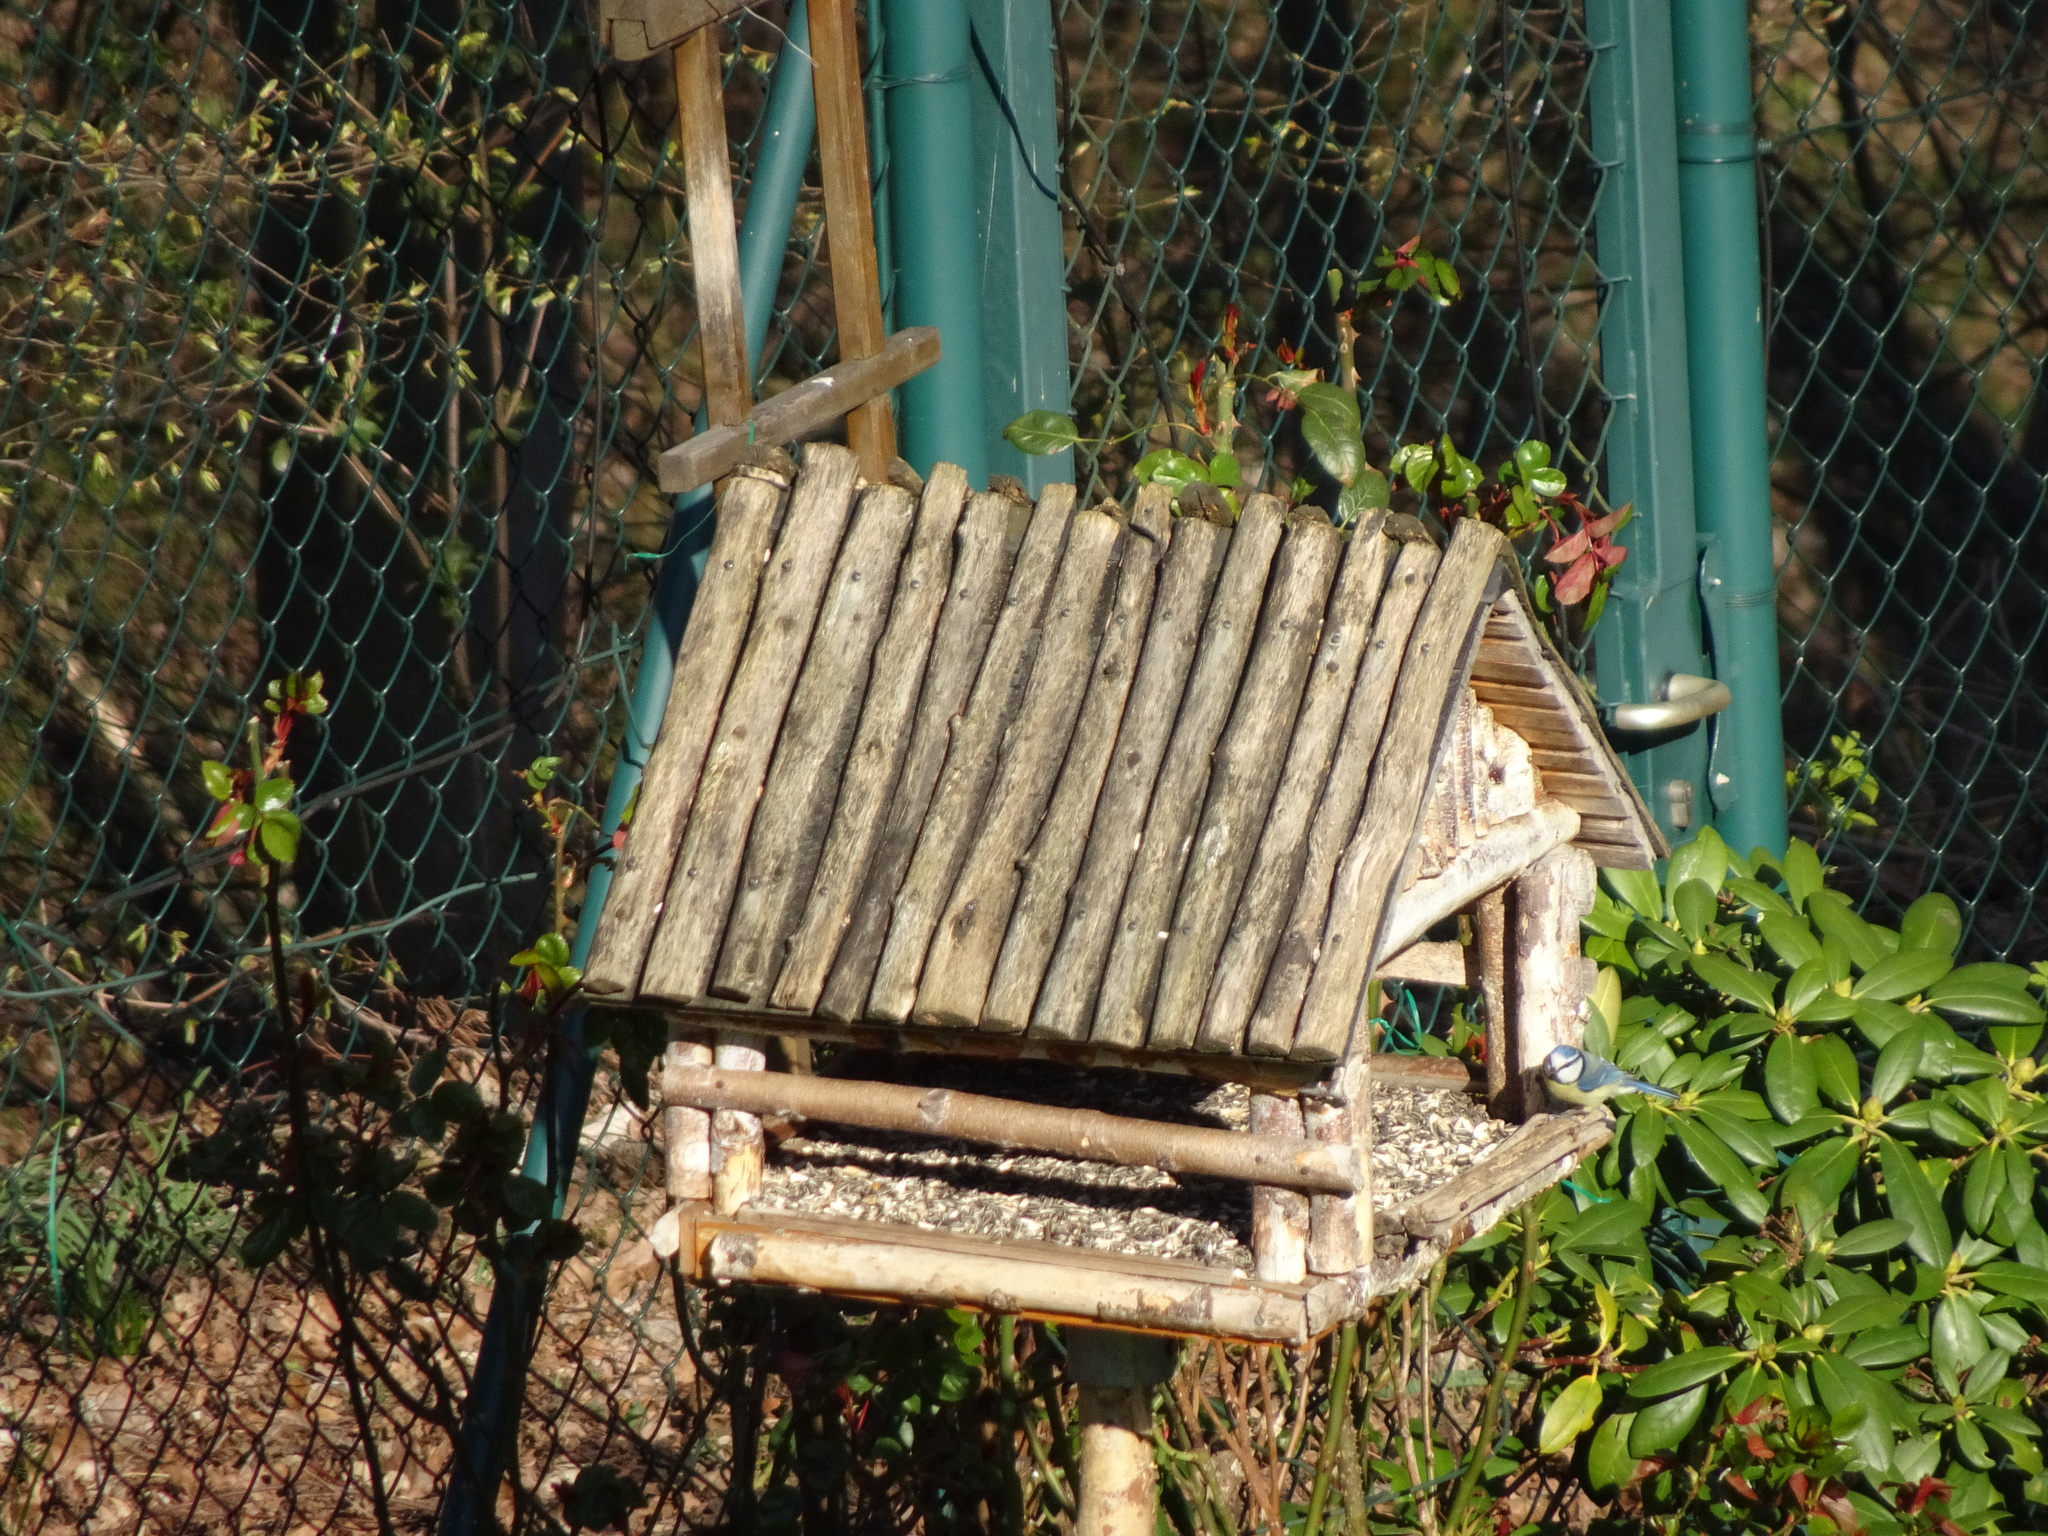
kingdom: Animalia
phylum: Chordata
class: Aves
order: Passeriformes
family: Paridae
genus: Cyanistes
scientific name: Cyanistes caeruleus
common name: Eurasian blue tit
